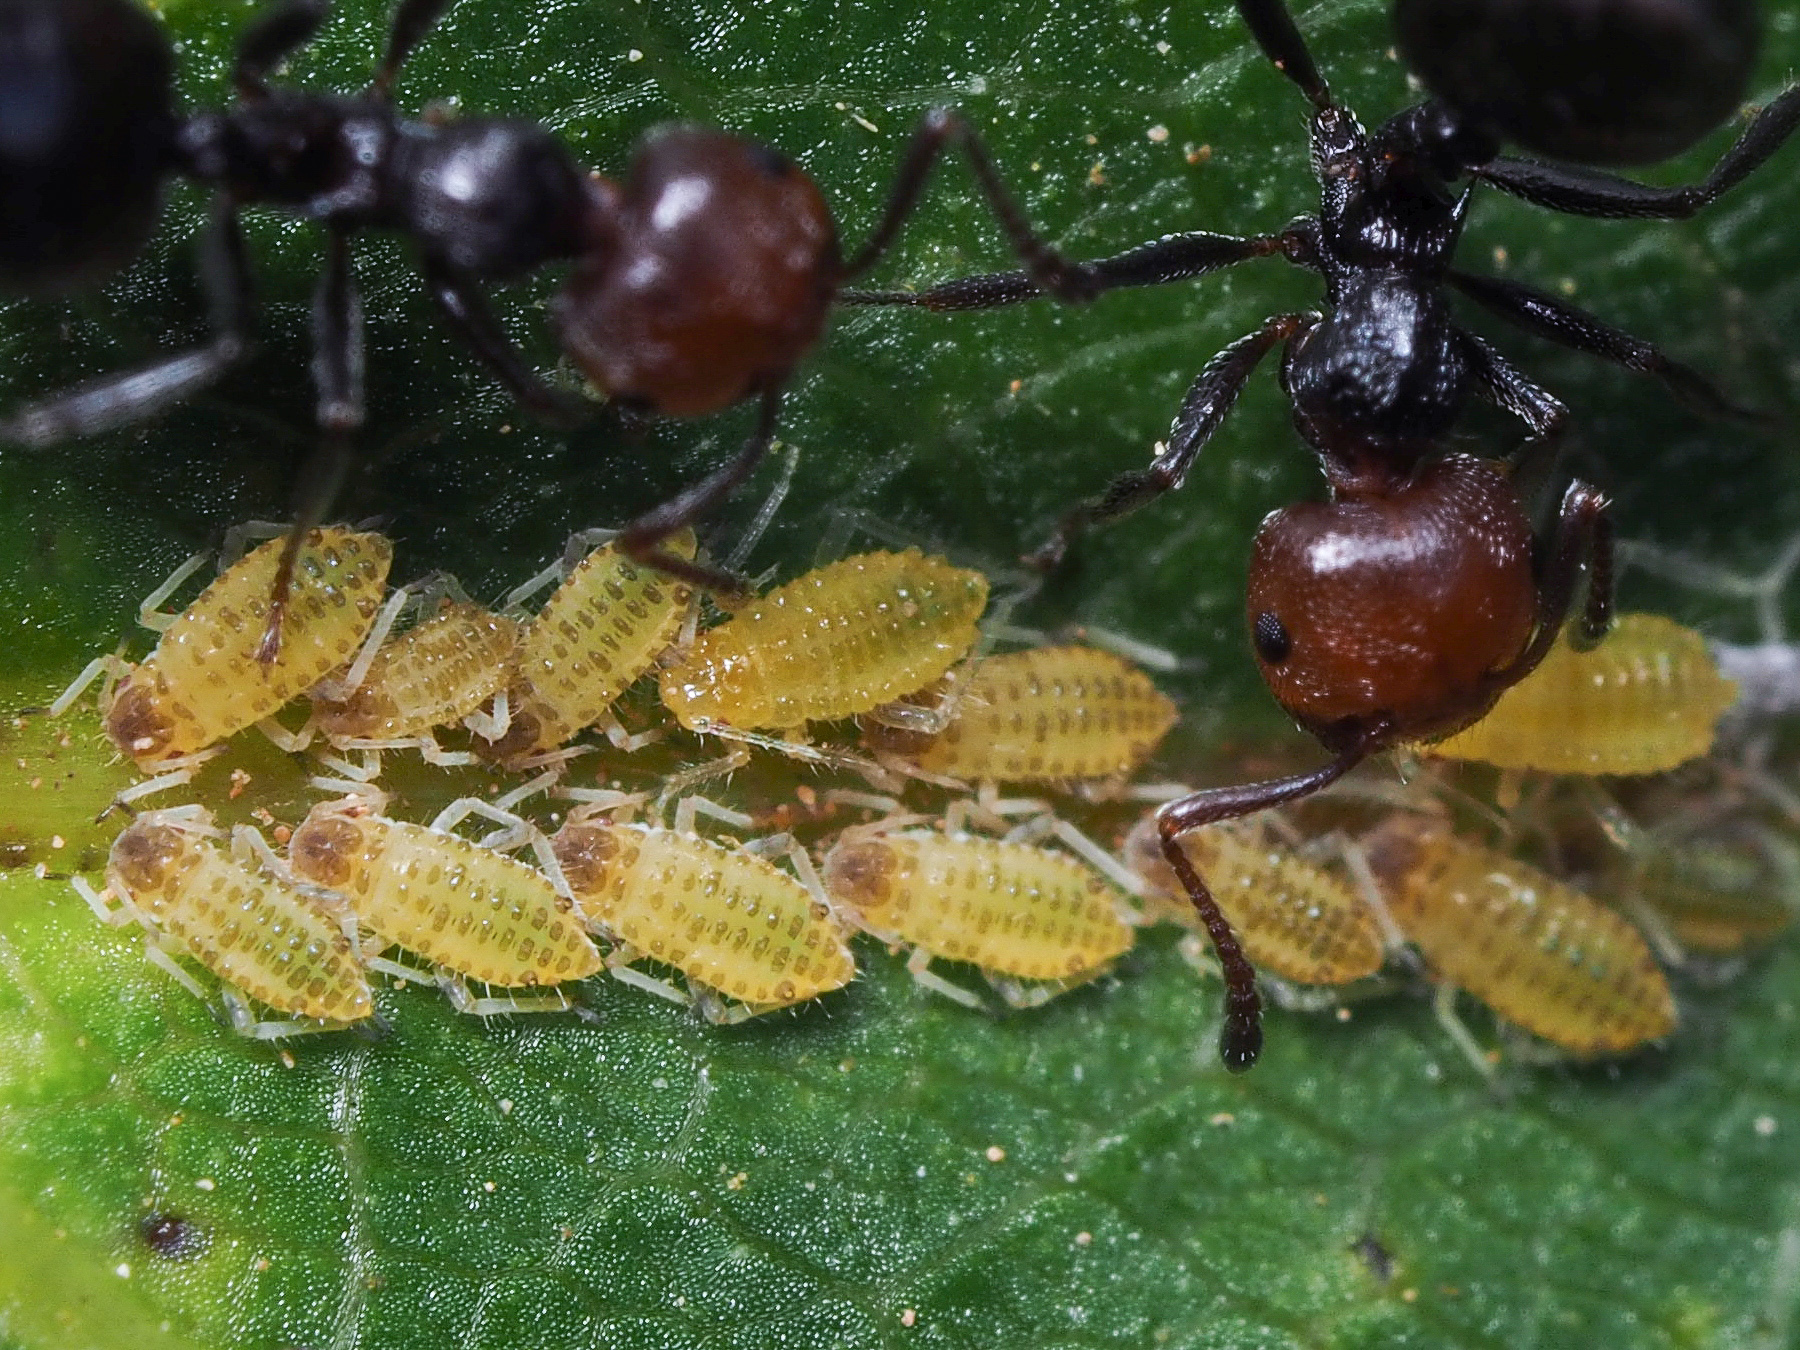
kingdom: Animalia
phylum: Arthropoda
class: Insecta
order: Hemiptera
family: Aphididae
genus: Panaphis
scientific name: Panaphis juglandis
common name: Large walnut aphid
